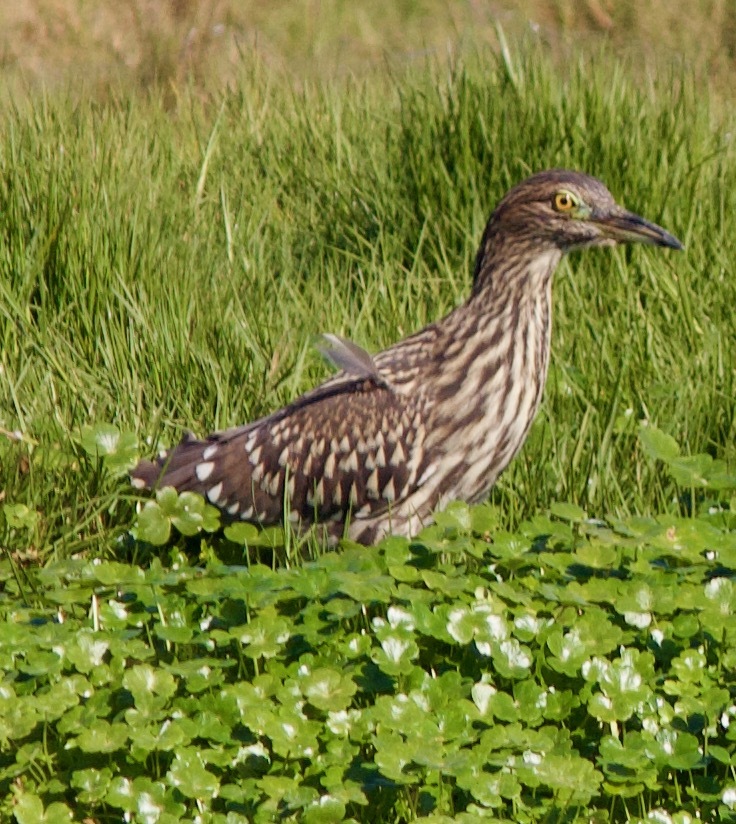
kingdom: Animalia
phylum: Chordata
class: Aves
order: Pelecaniformes
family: Ardeidae
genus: Nycticorax
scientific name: Nycticorax nycticorax
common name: Black-crowned night heron
